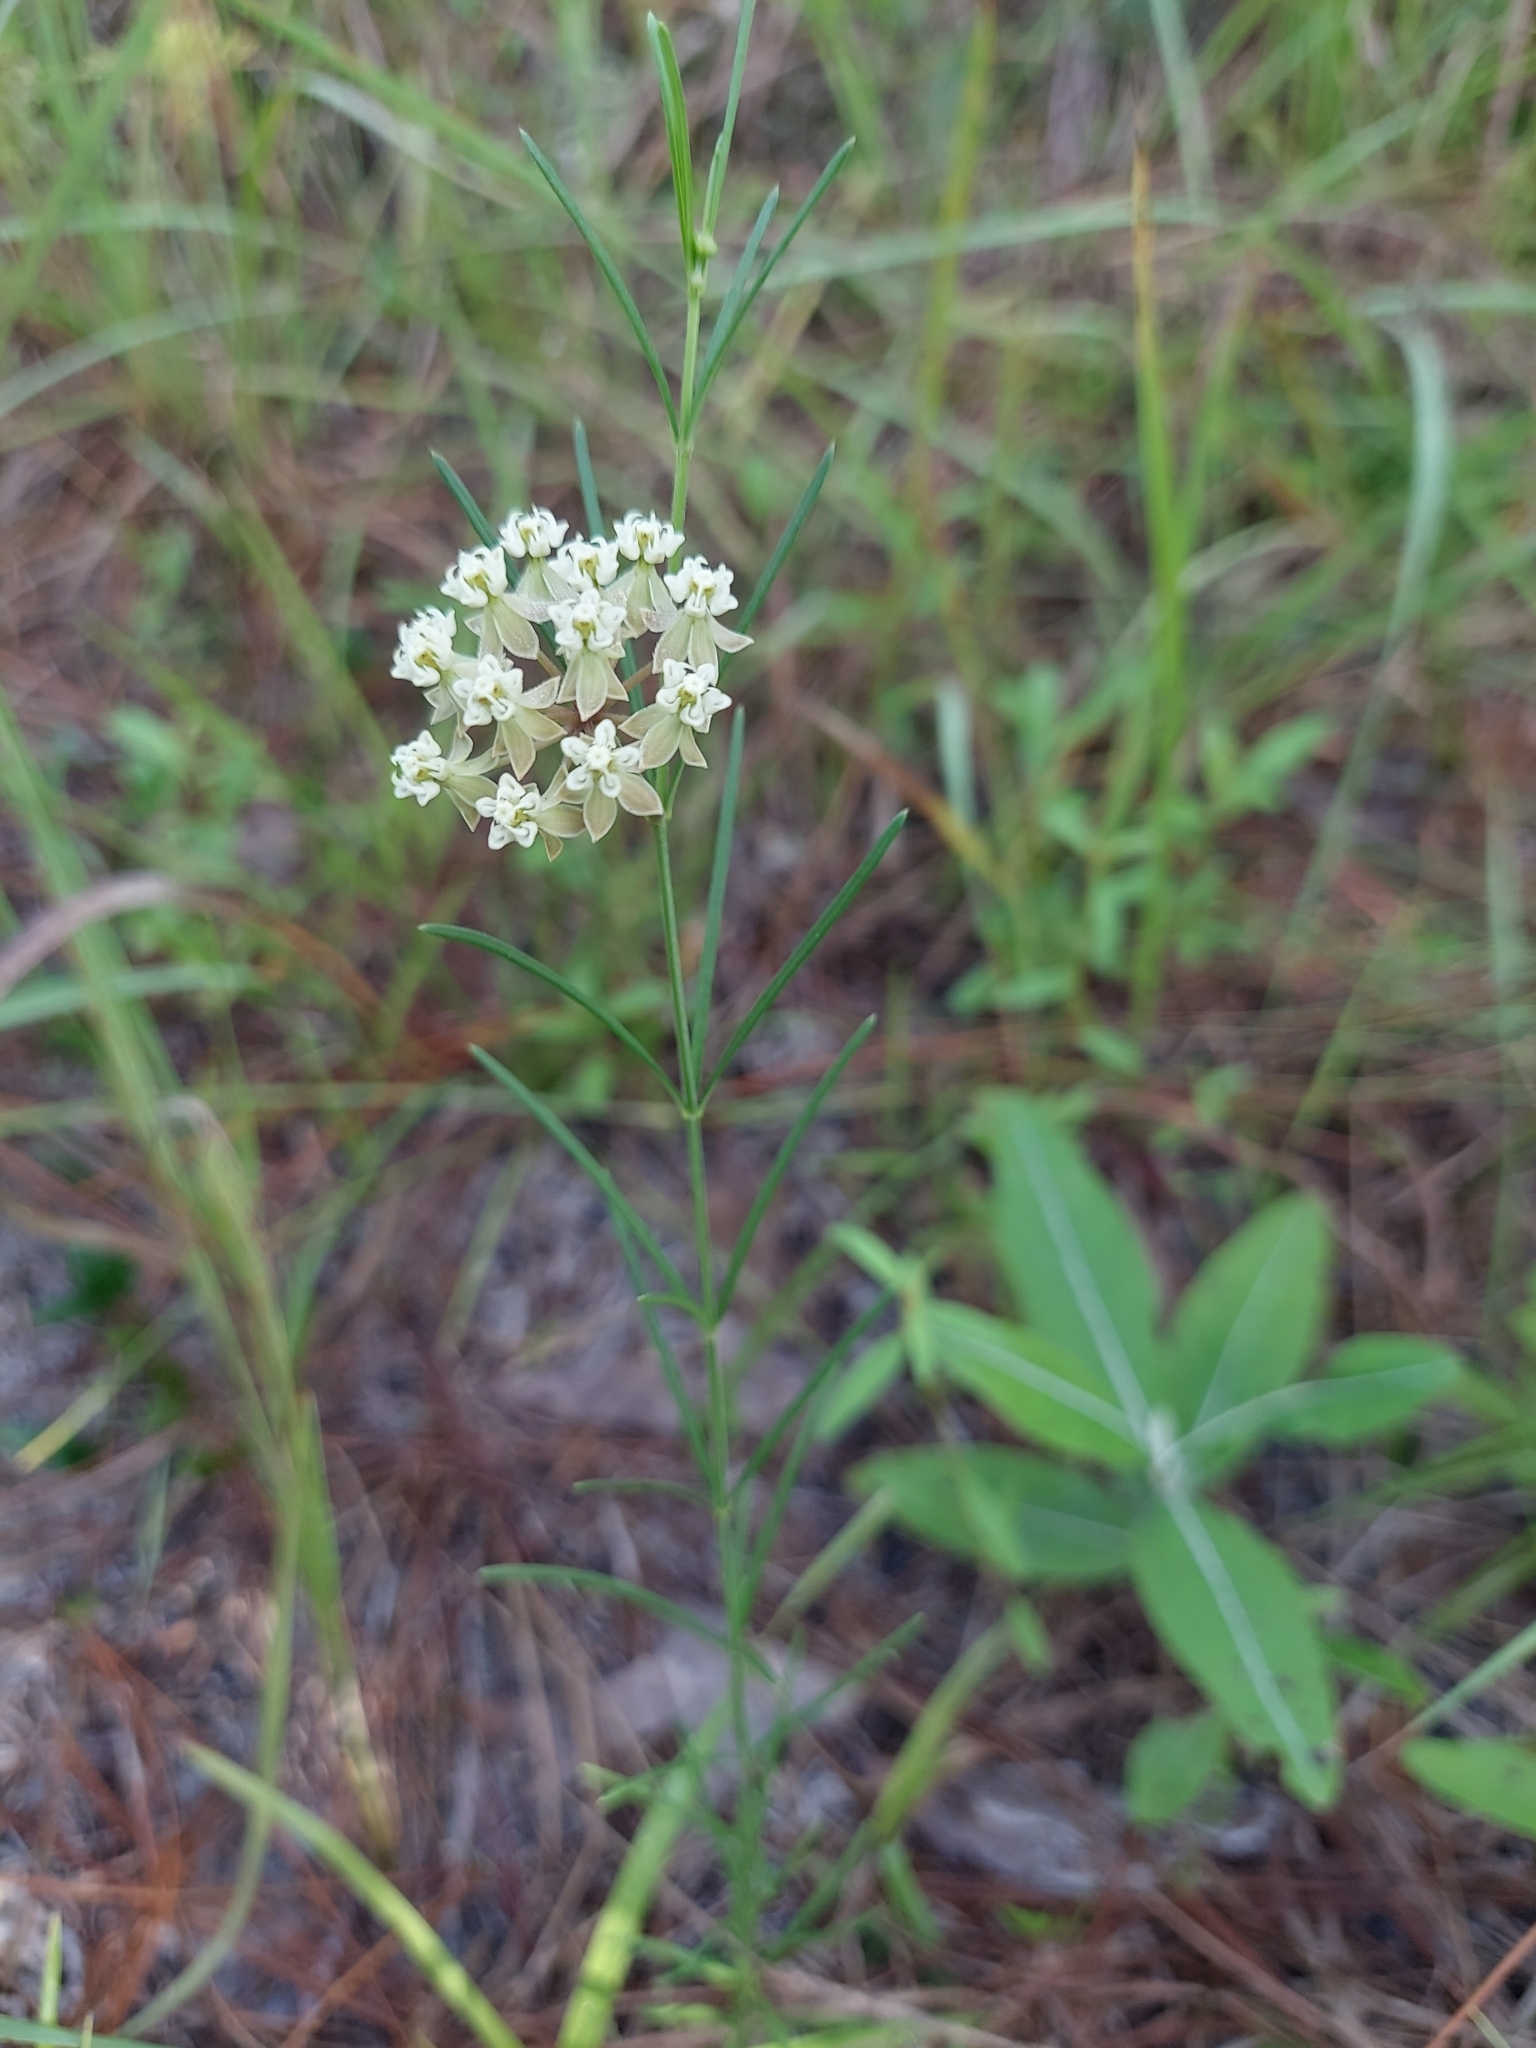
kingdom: Plantae
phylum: Tracheophyta
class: Magnoliopsida
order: Gentianales
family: Apocynaceae
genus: Asclepias
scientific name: Asclepias verticillata
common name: Eastern whorled milkweed
